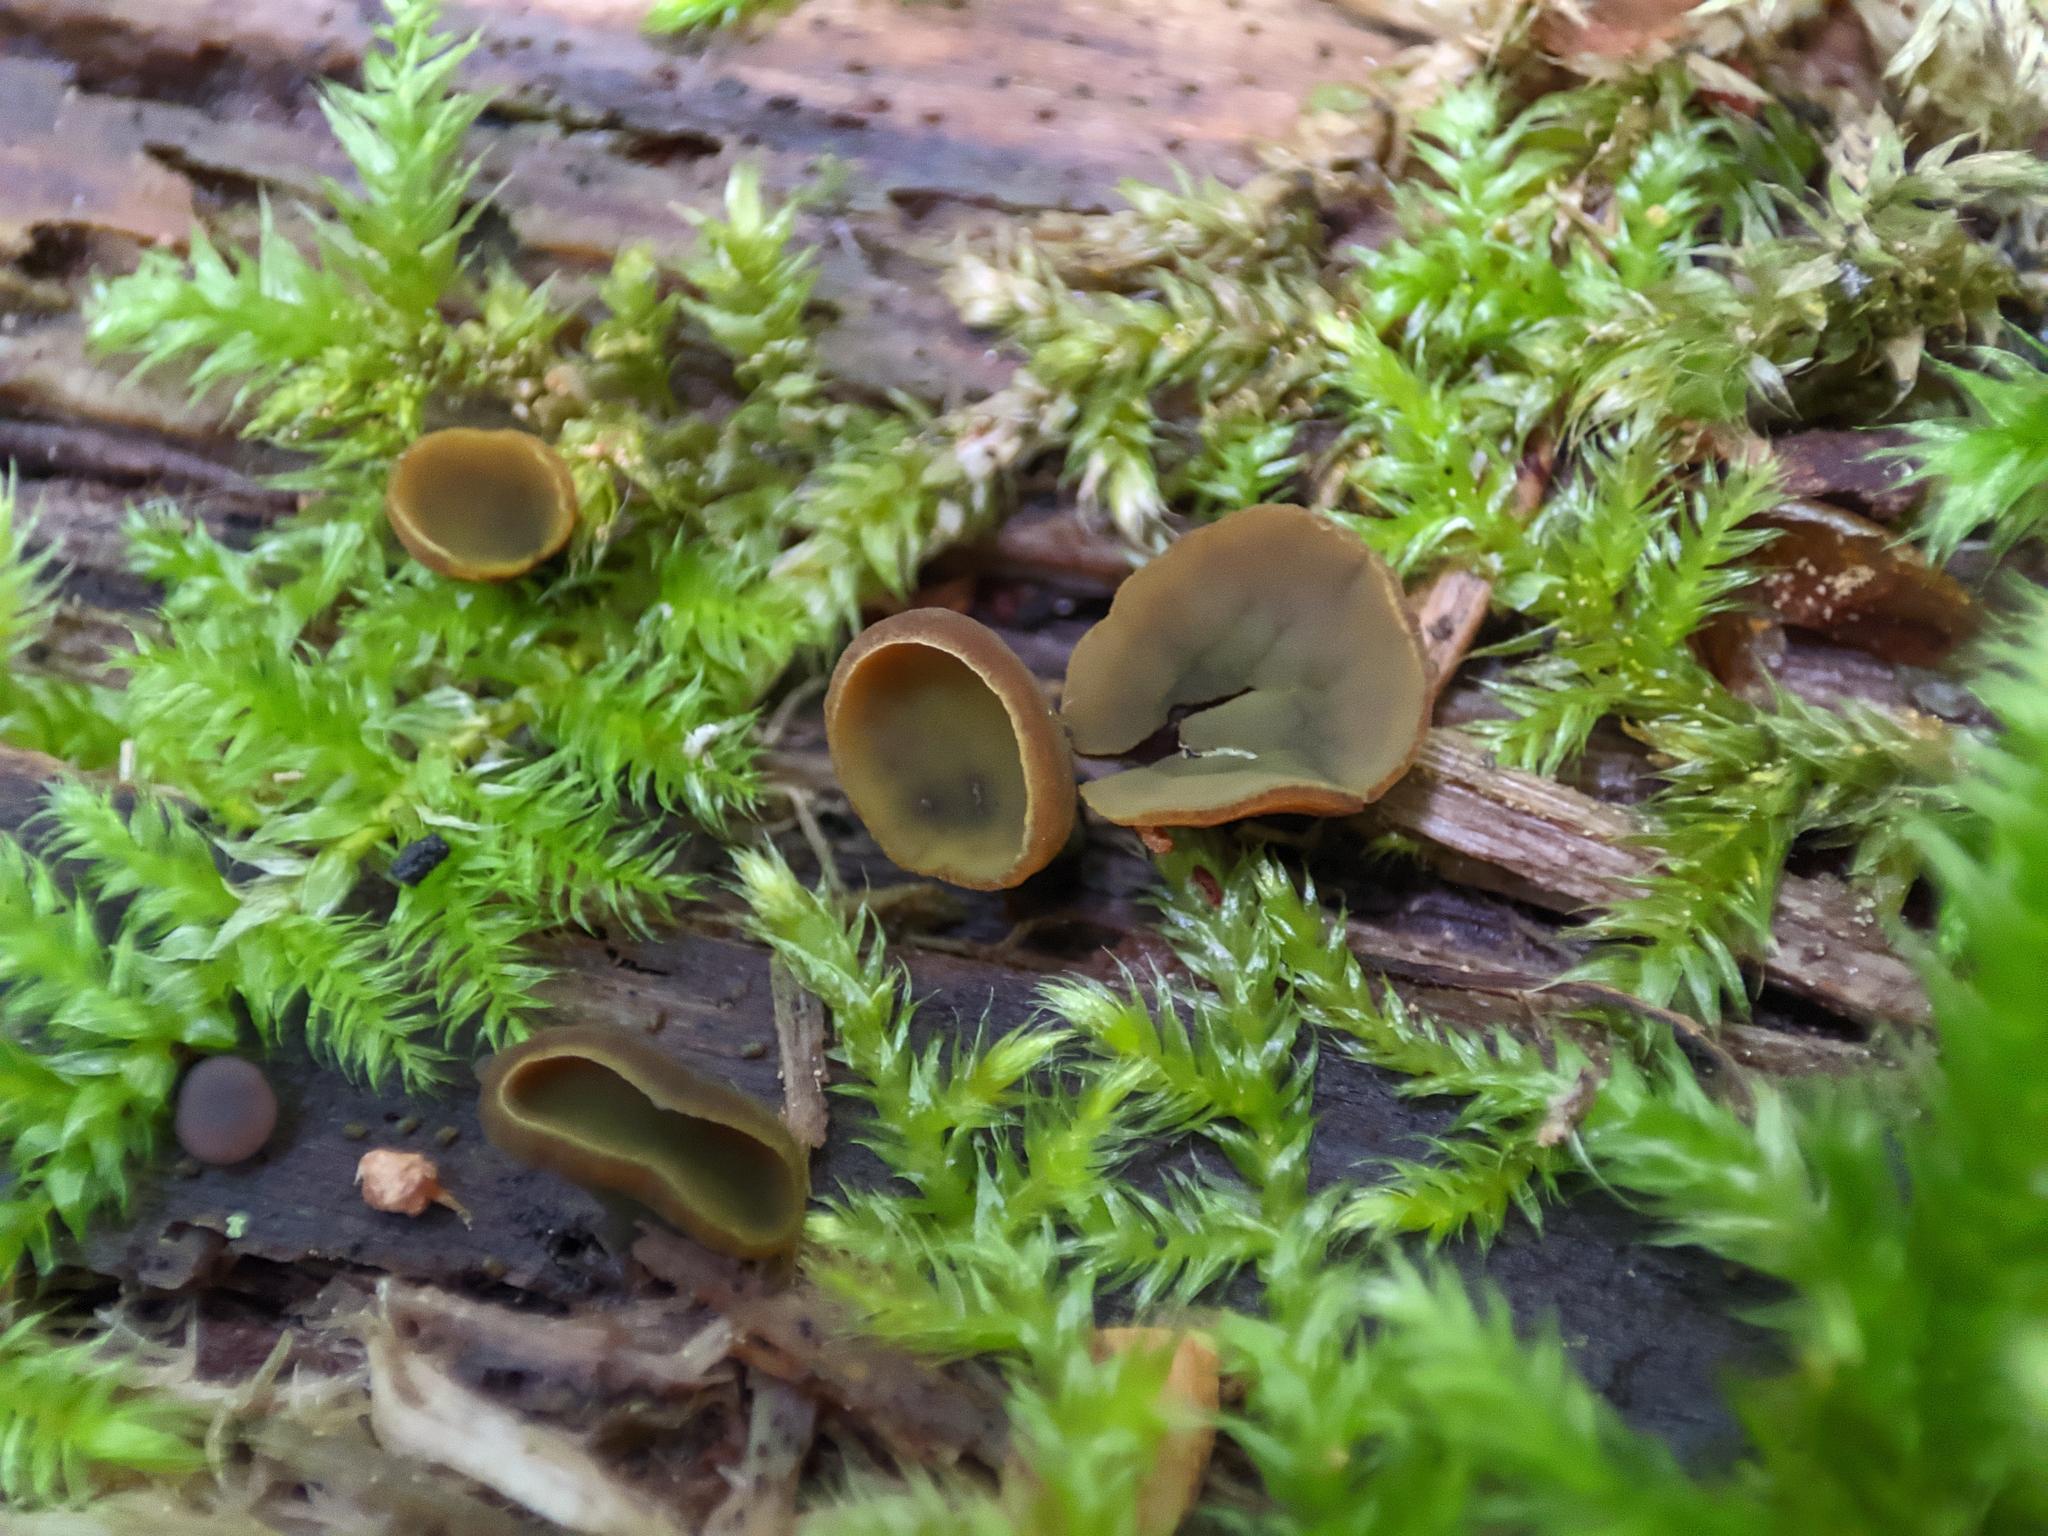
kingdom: Fungi
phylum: Ascomycota
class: Leotiomycetes
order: Helotiales
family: Cenangiaceae
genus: Chlorencoelia
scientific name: Chlorencoelia versiformis
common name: Flea's ear
